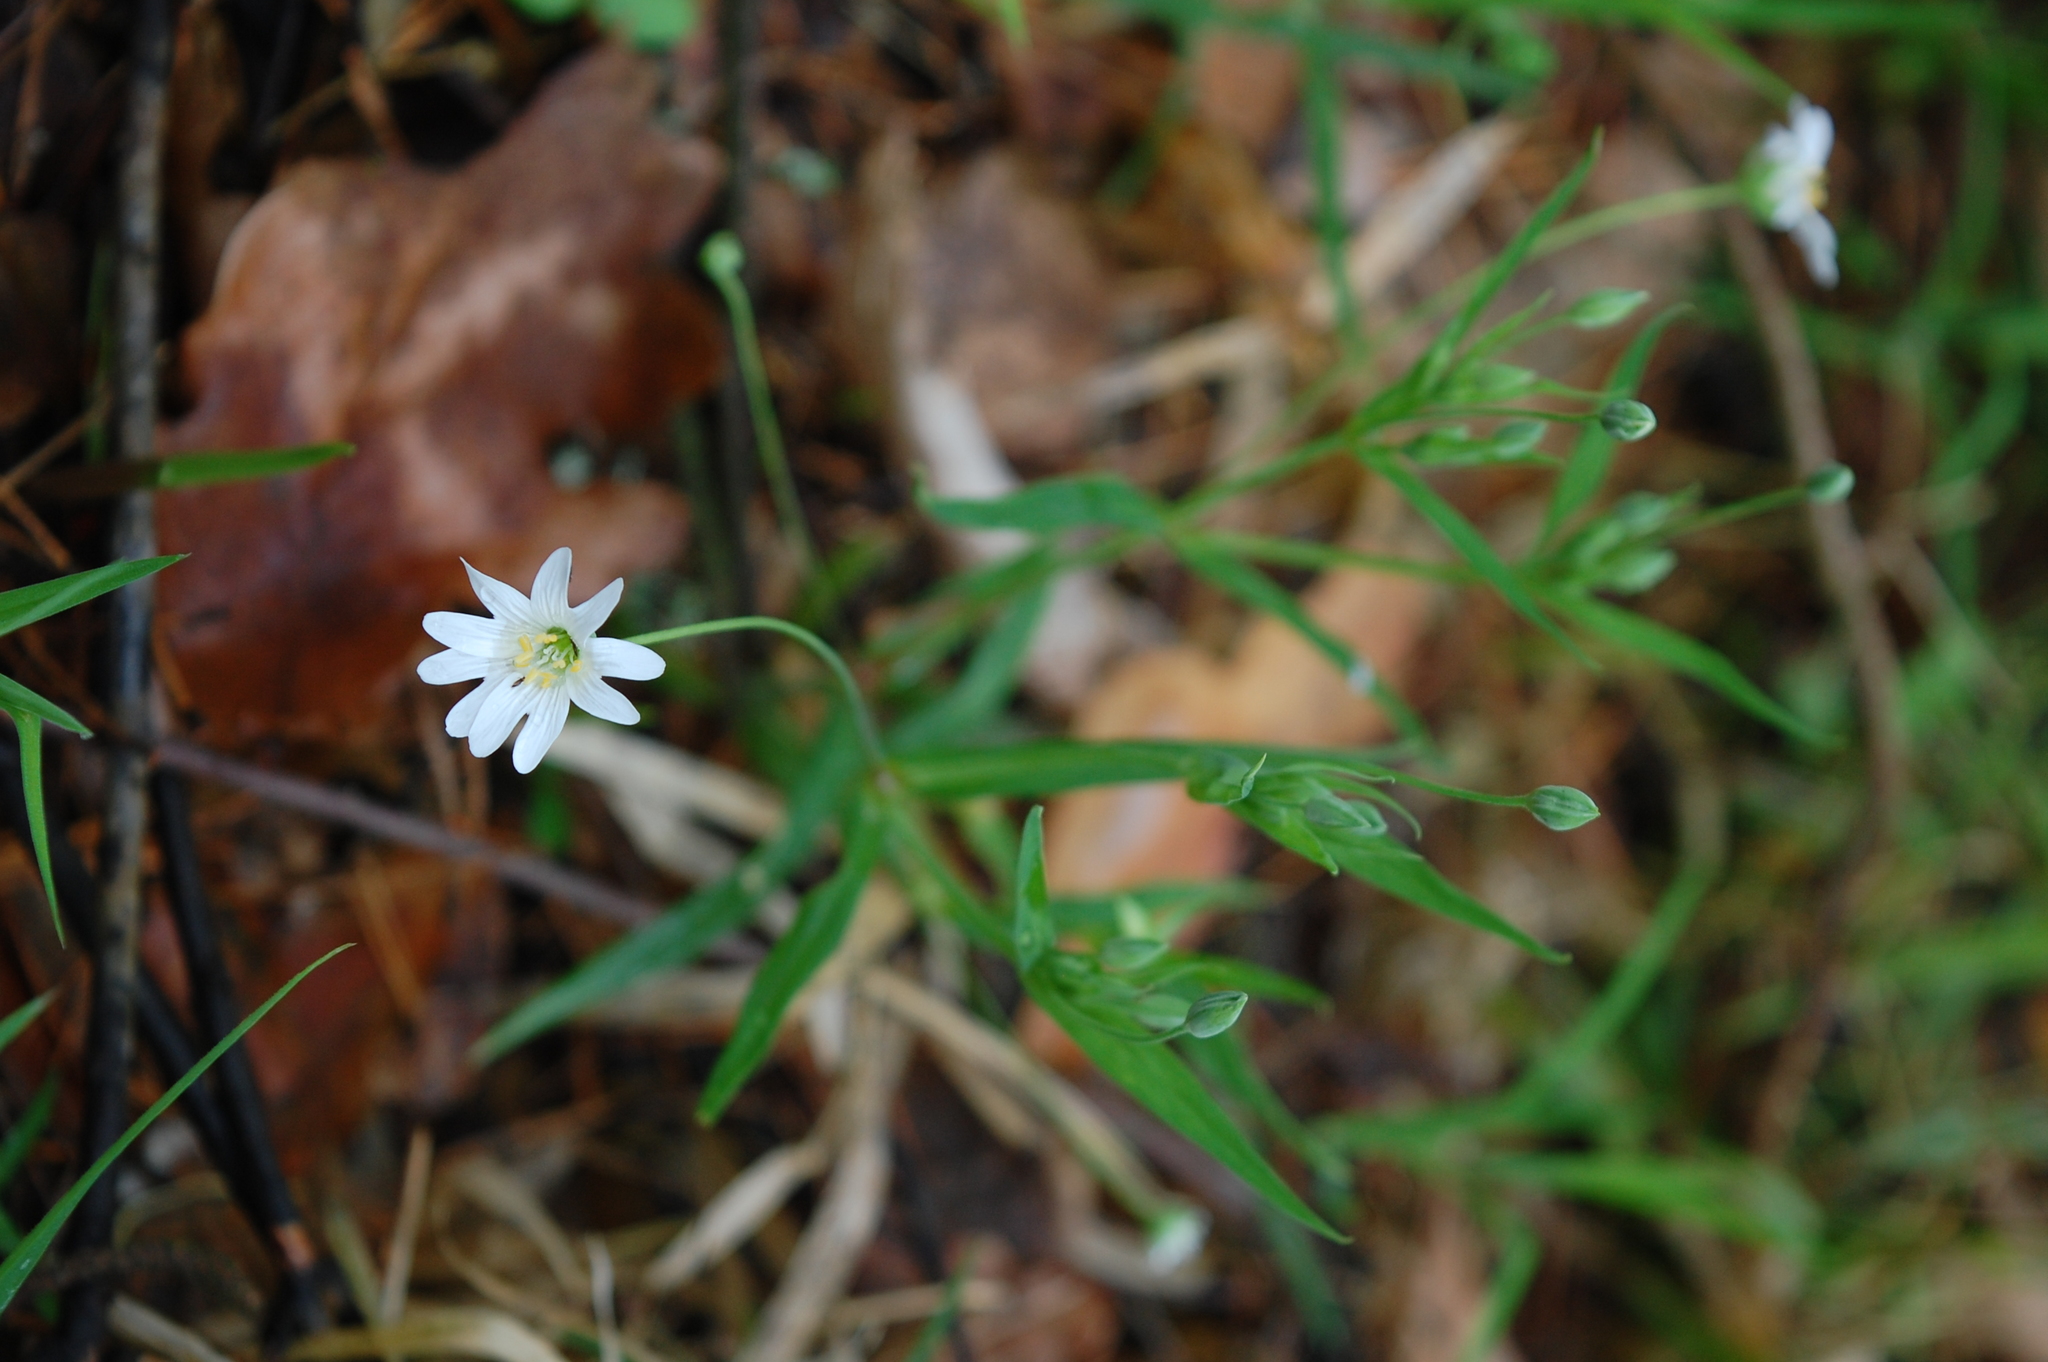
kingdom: Plantae
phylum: Tracheophyta
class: Magnoliopsida
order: Caryophyllales
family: Caryophyllaceae
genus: Rabelera
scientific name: Rabelera holostea
